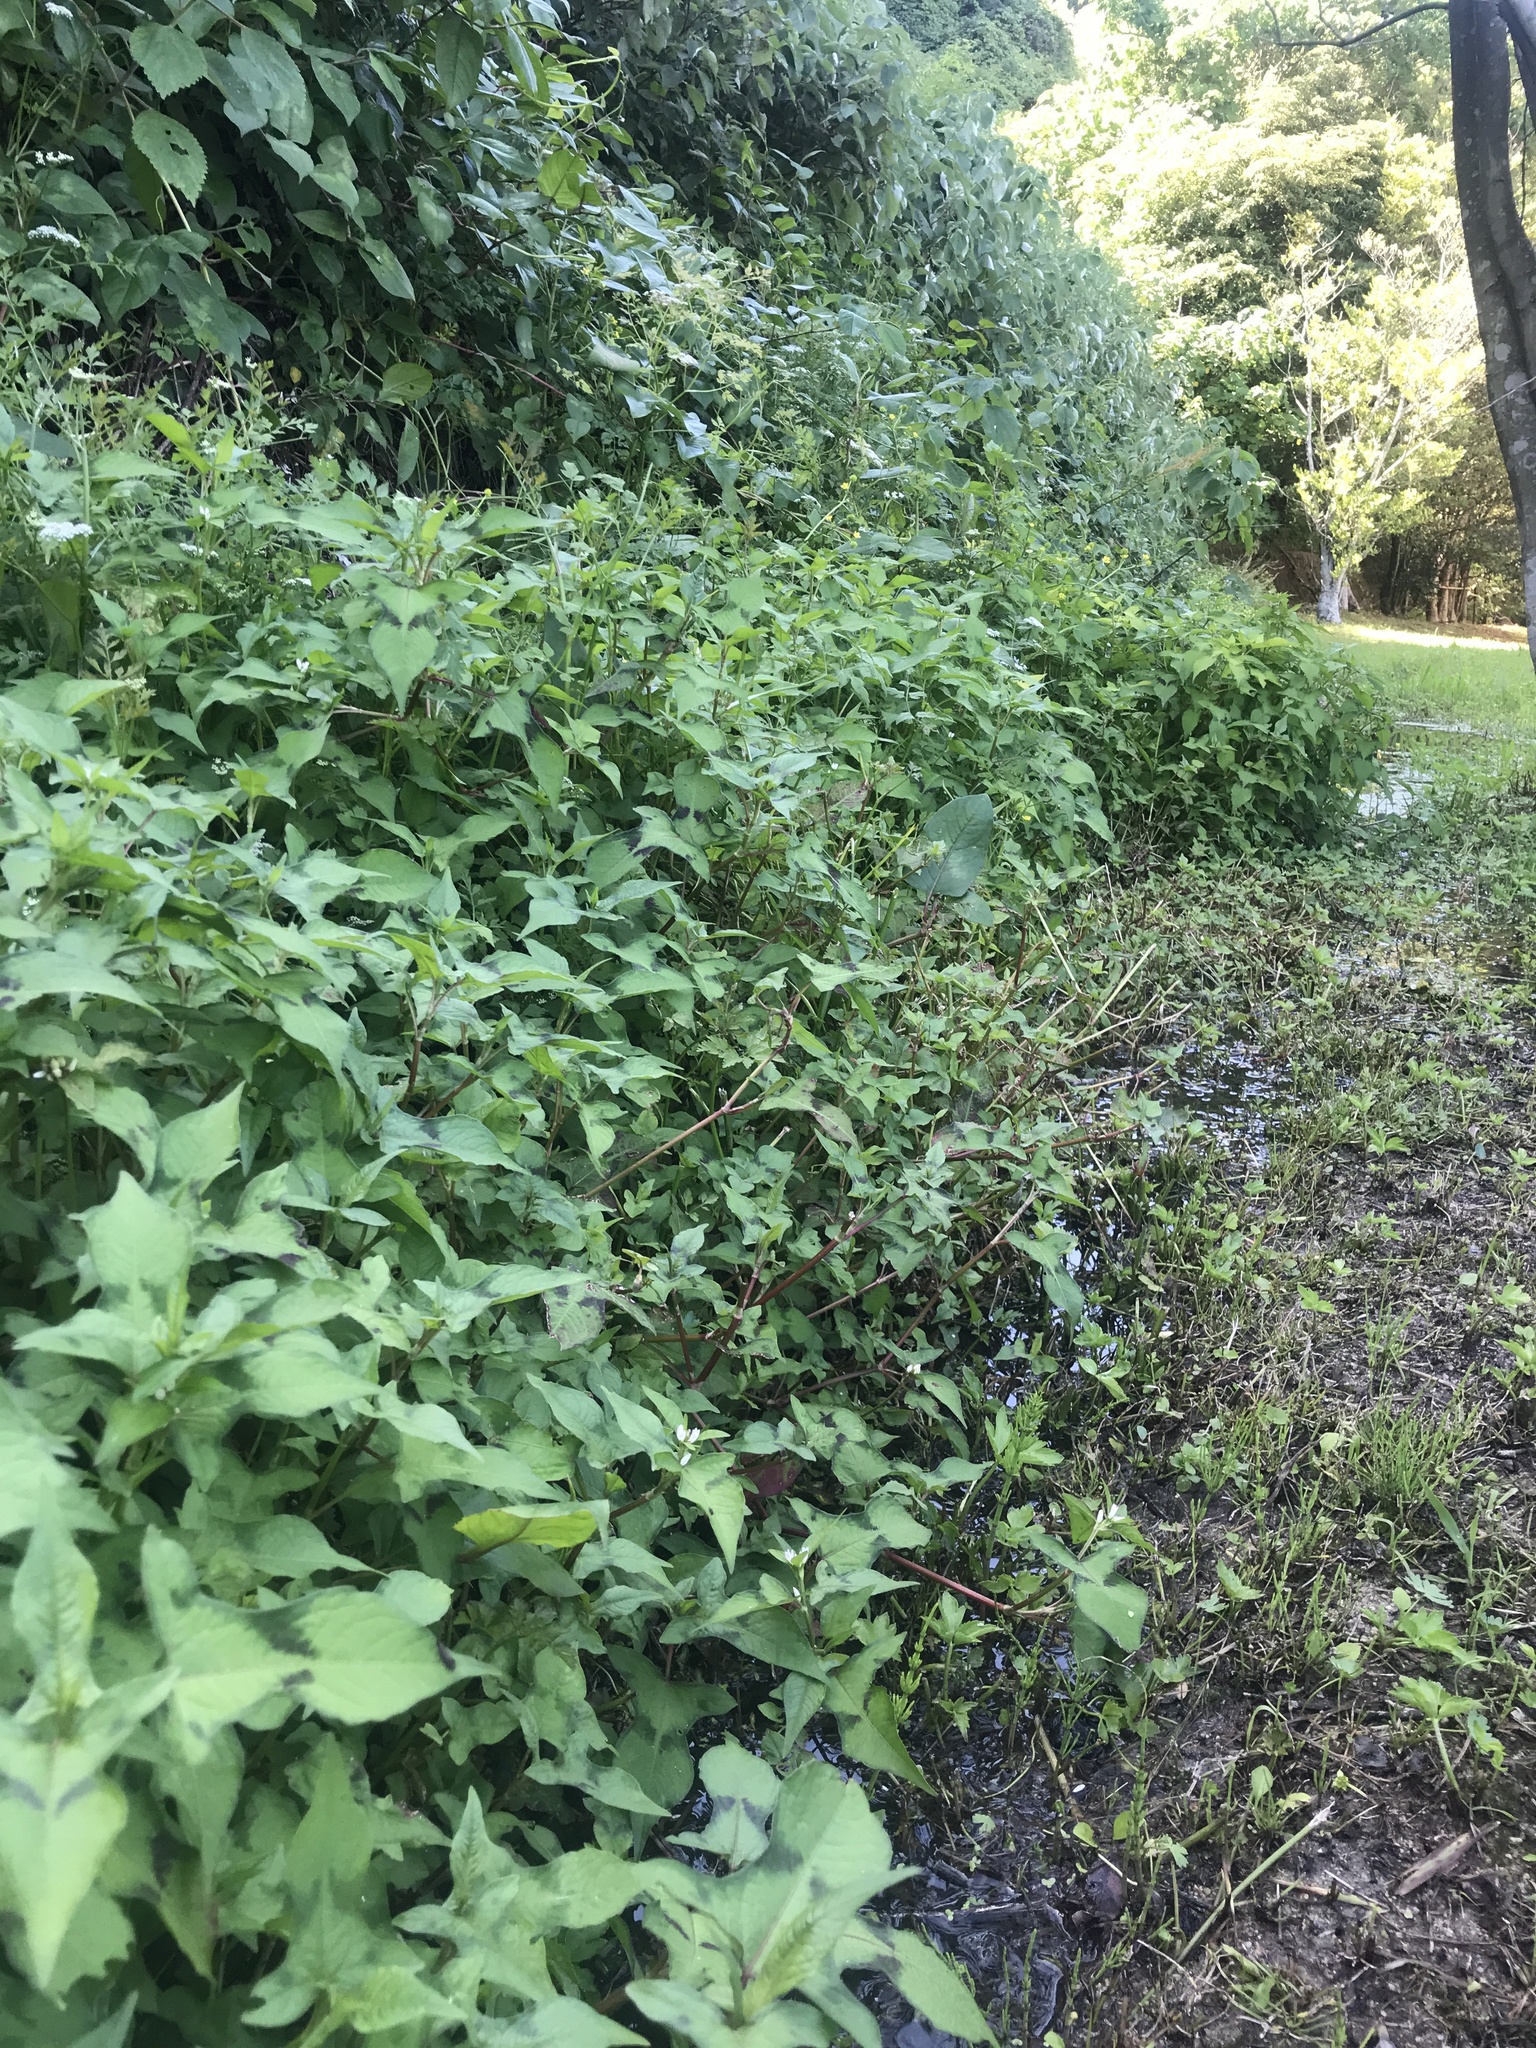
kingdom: Plantae
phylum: Tracheophyta
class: Magnoliopsida
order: Caryophyllales
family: Polygonaceae
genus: Persicaria
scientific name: Persicaria thunbergii
